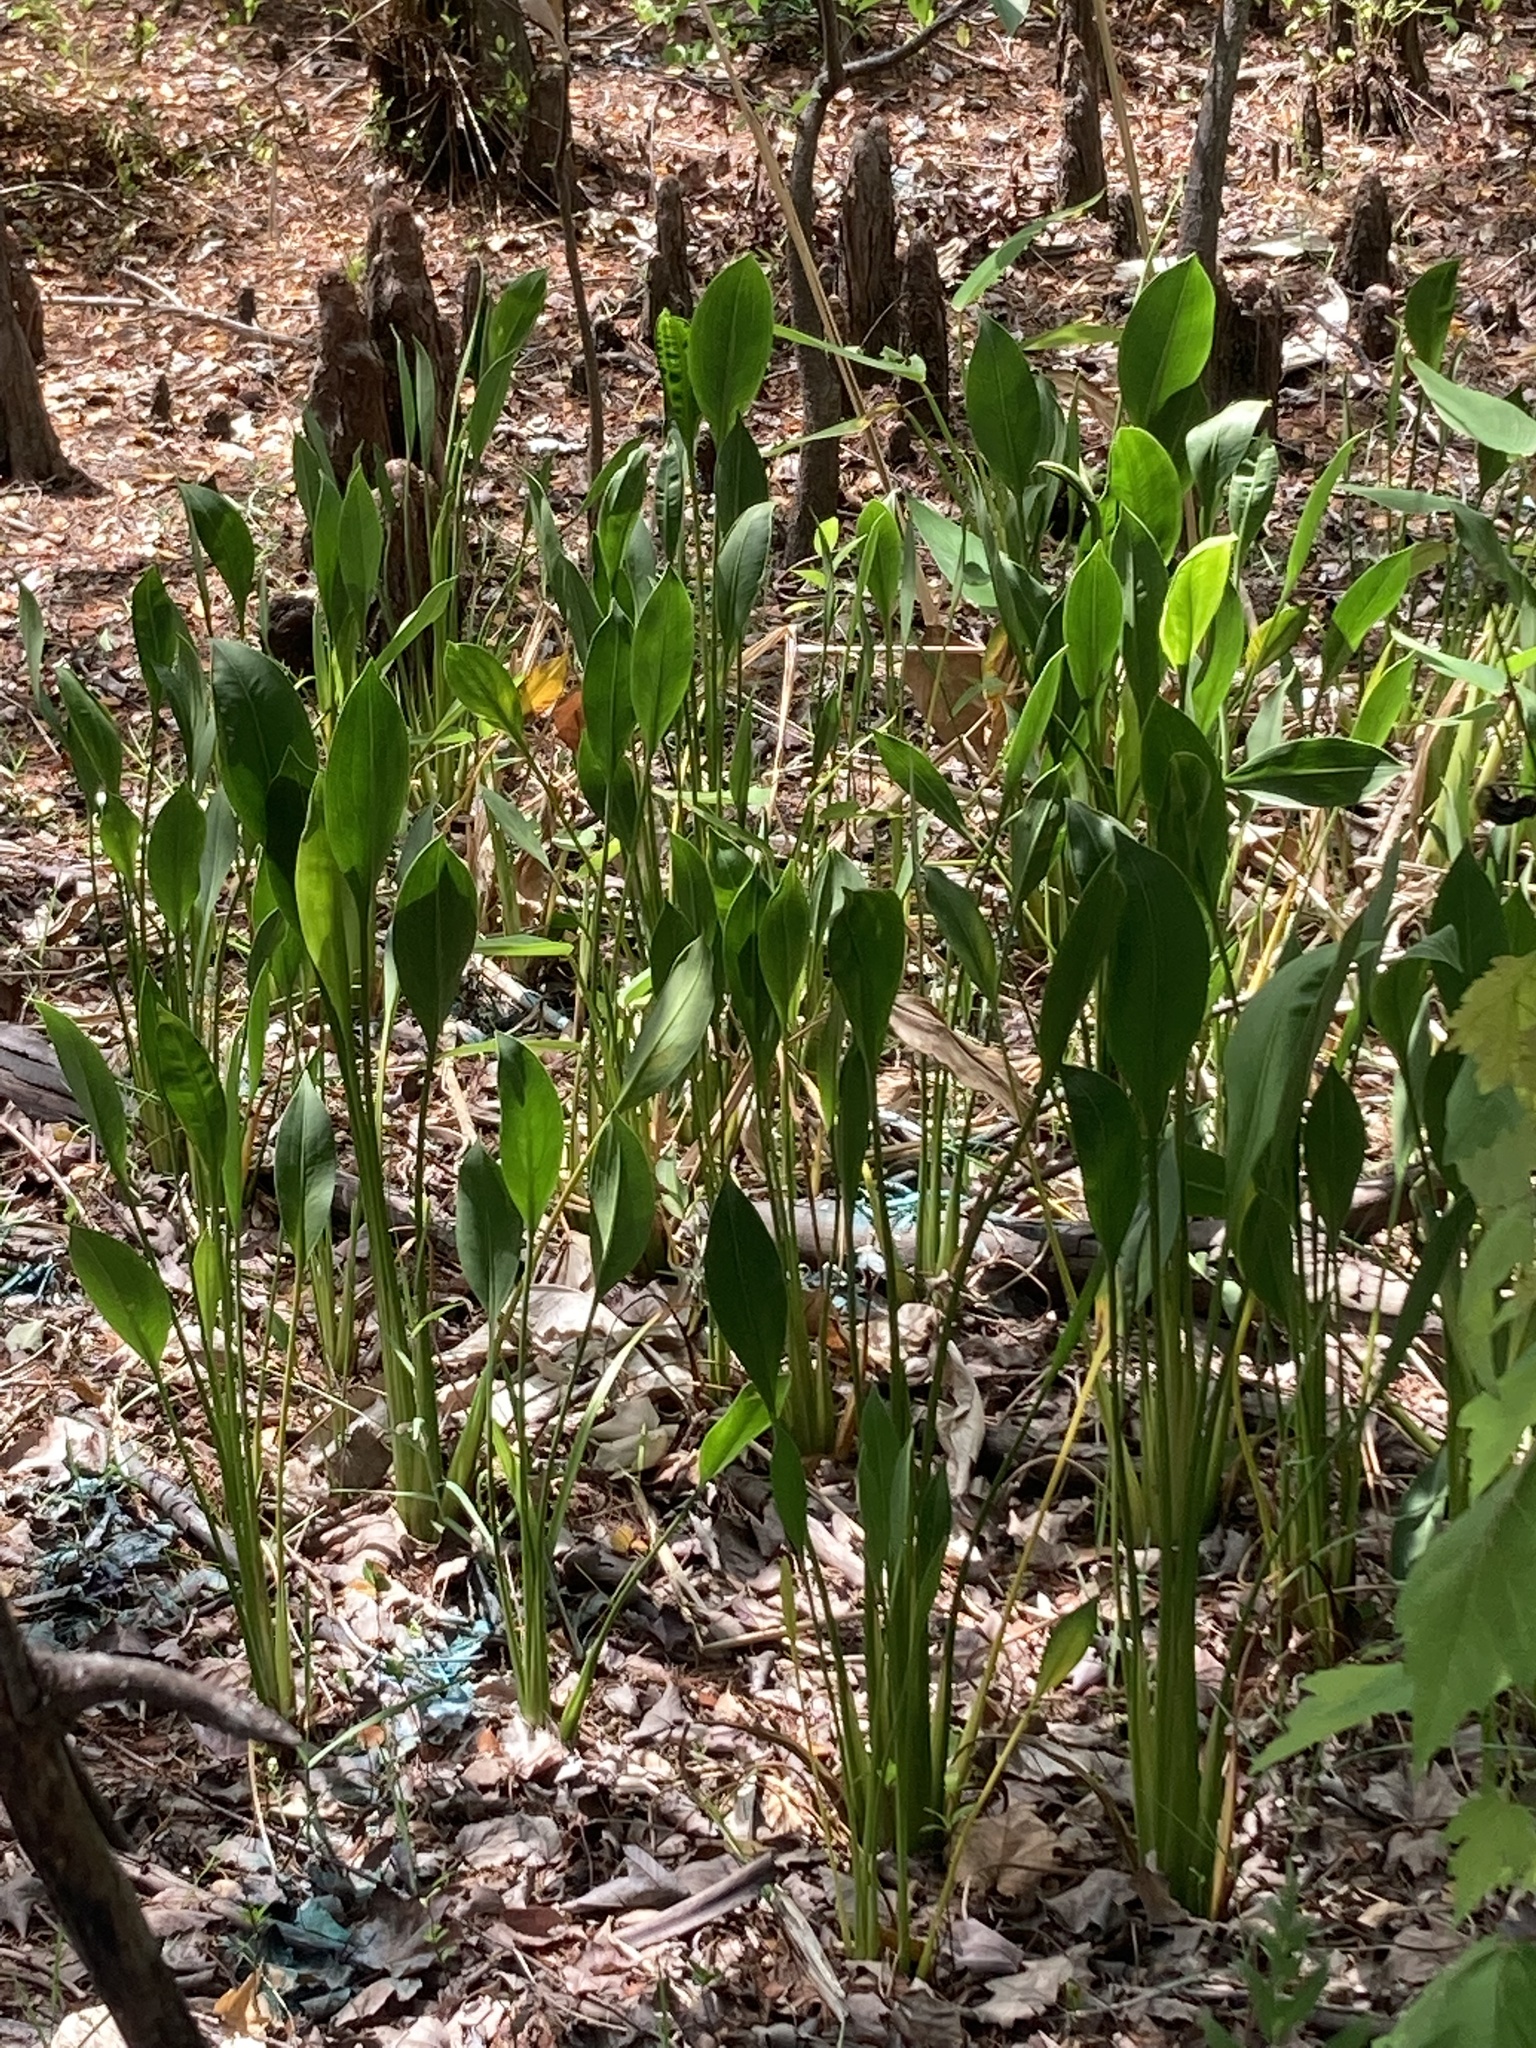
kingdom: Plantae
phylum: Tracheophyta
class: Liliopsida
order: Alismatales
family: Alismataceae
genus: Sagittaria
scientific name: Sagittaria lancifolia
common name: Lance-leaf arrowhead
